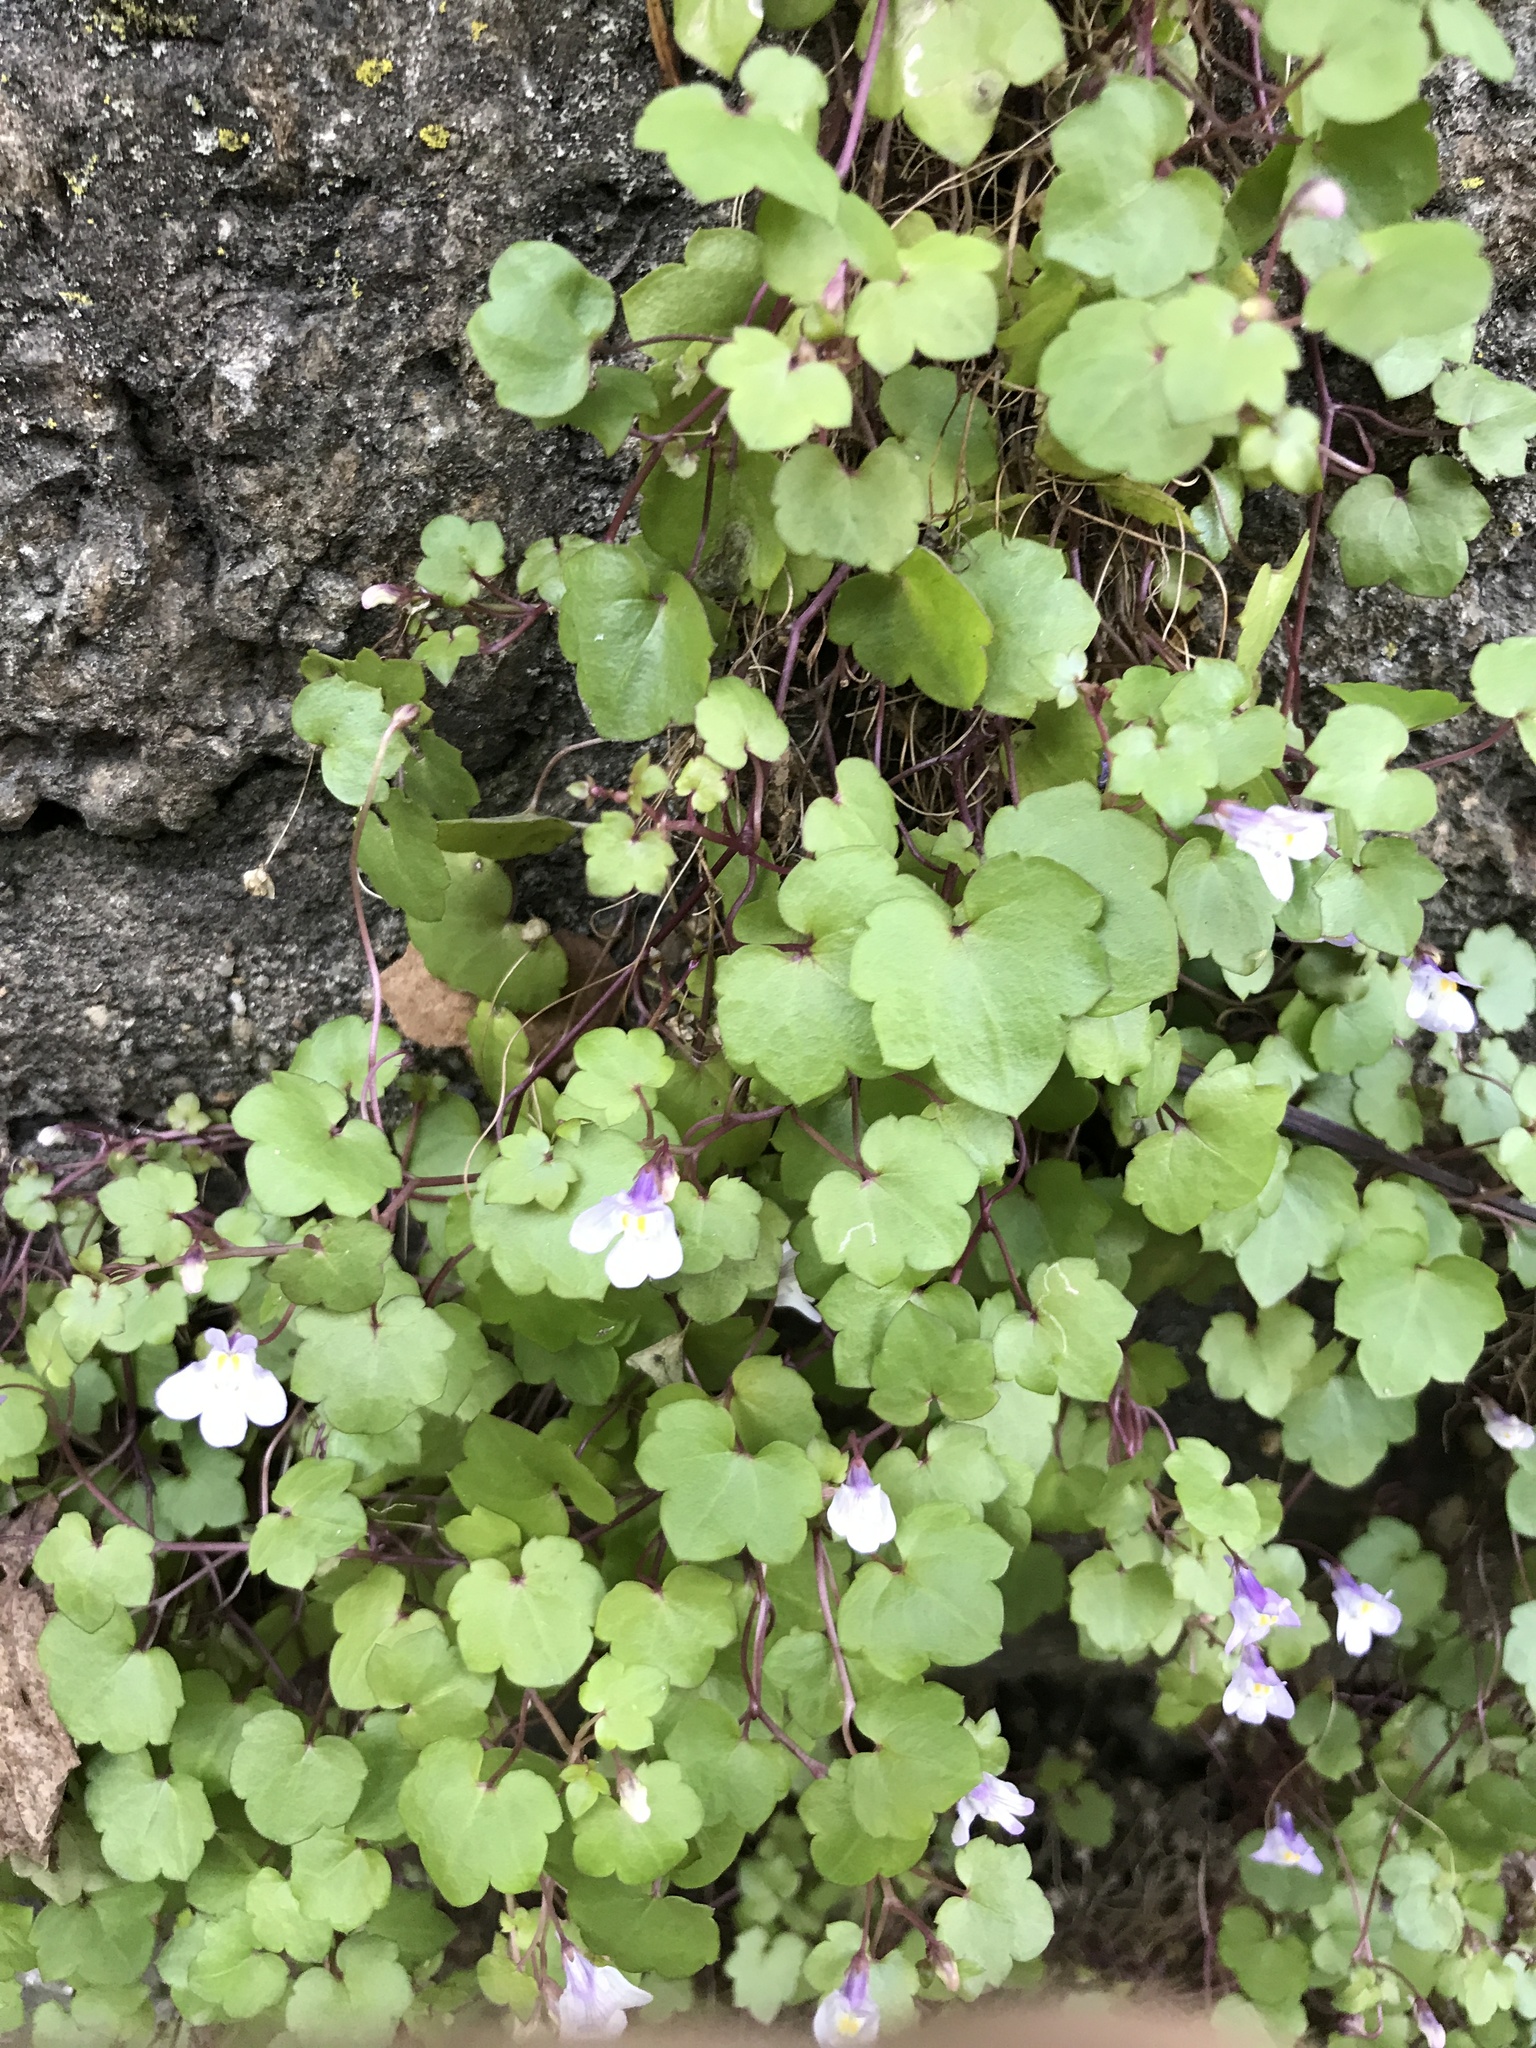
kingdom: Plantae
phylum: Tracheophyta
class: Magnoliopsida
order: Lamiales
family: Plantaginaceae
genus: Cymbalaria
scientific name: Cymbalaria muralis
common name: Ivy-leaved toadflax
